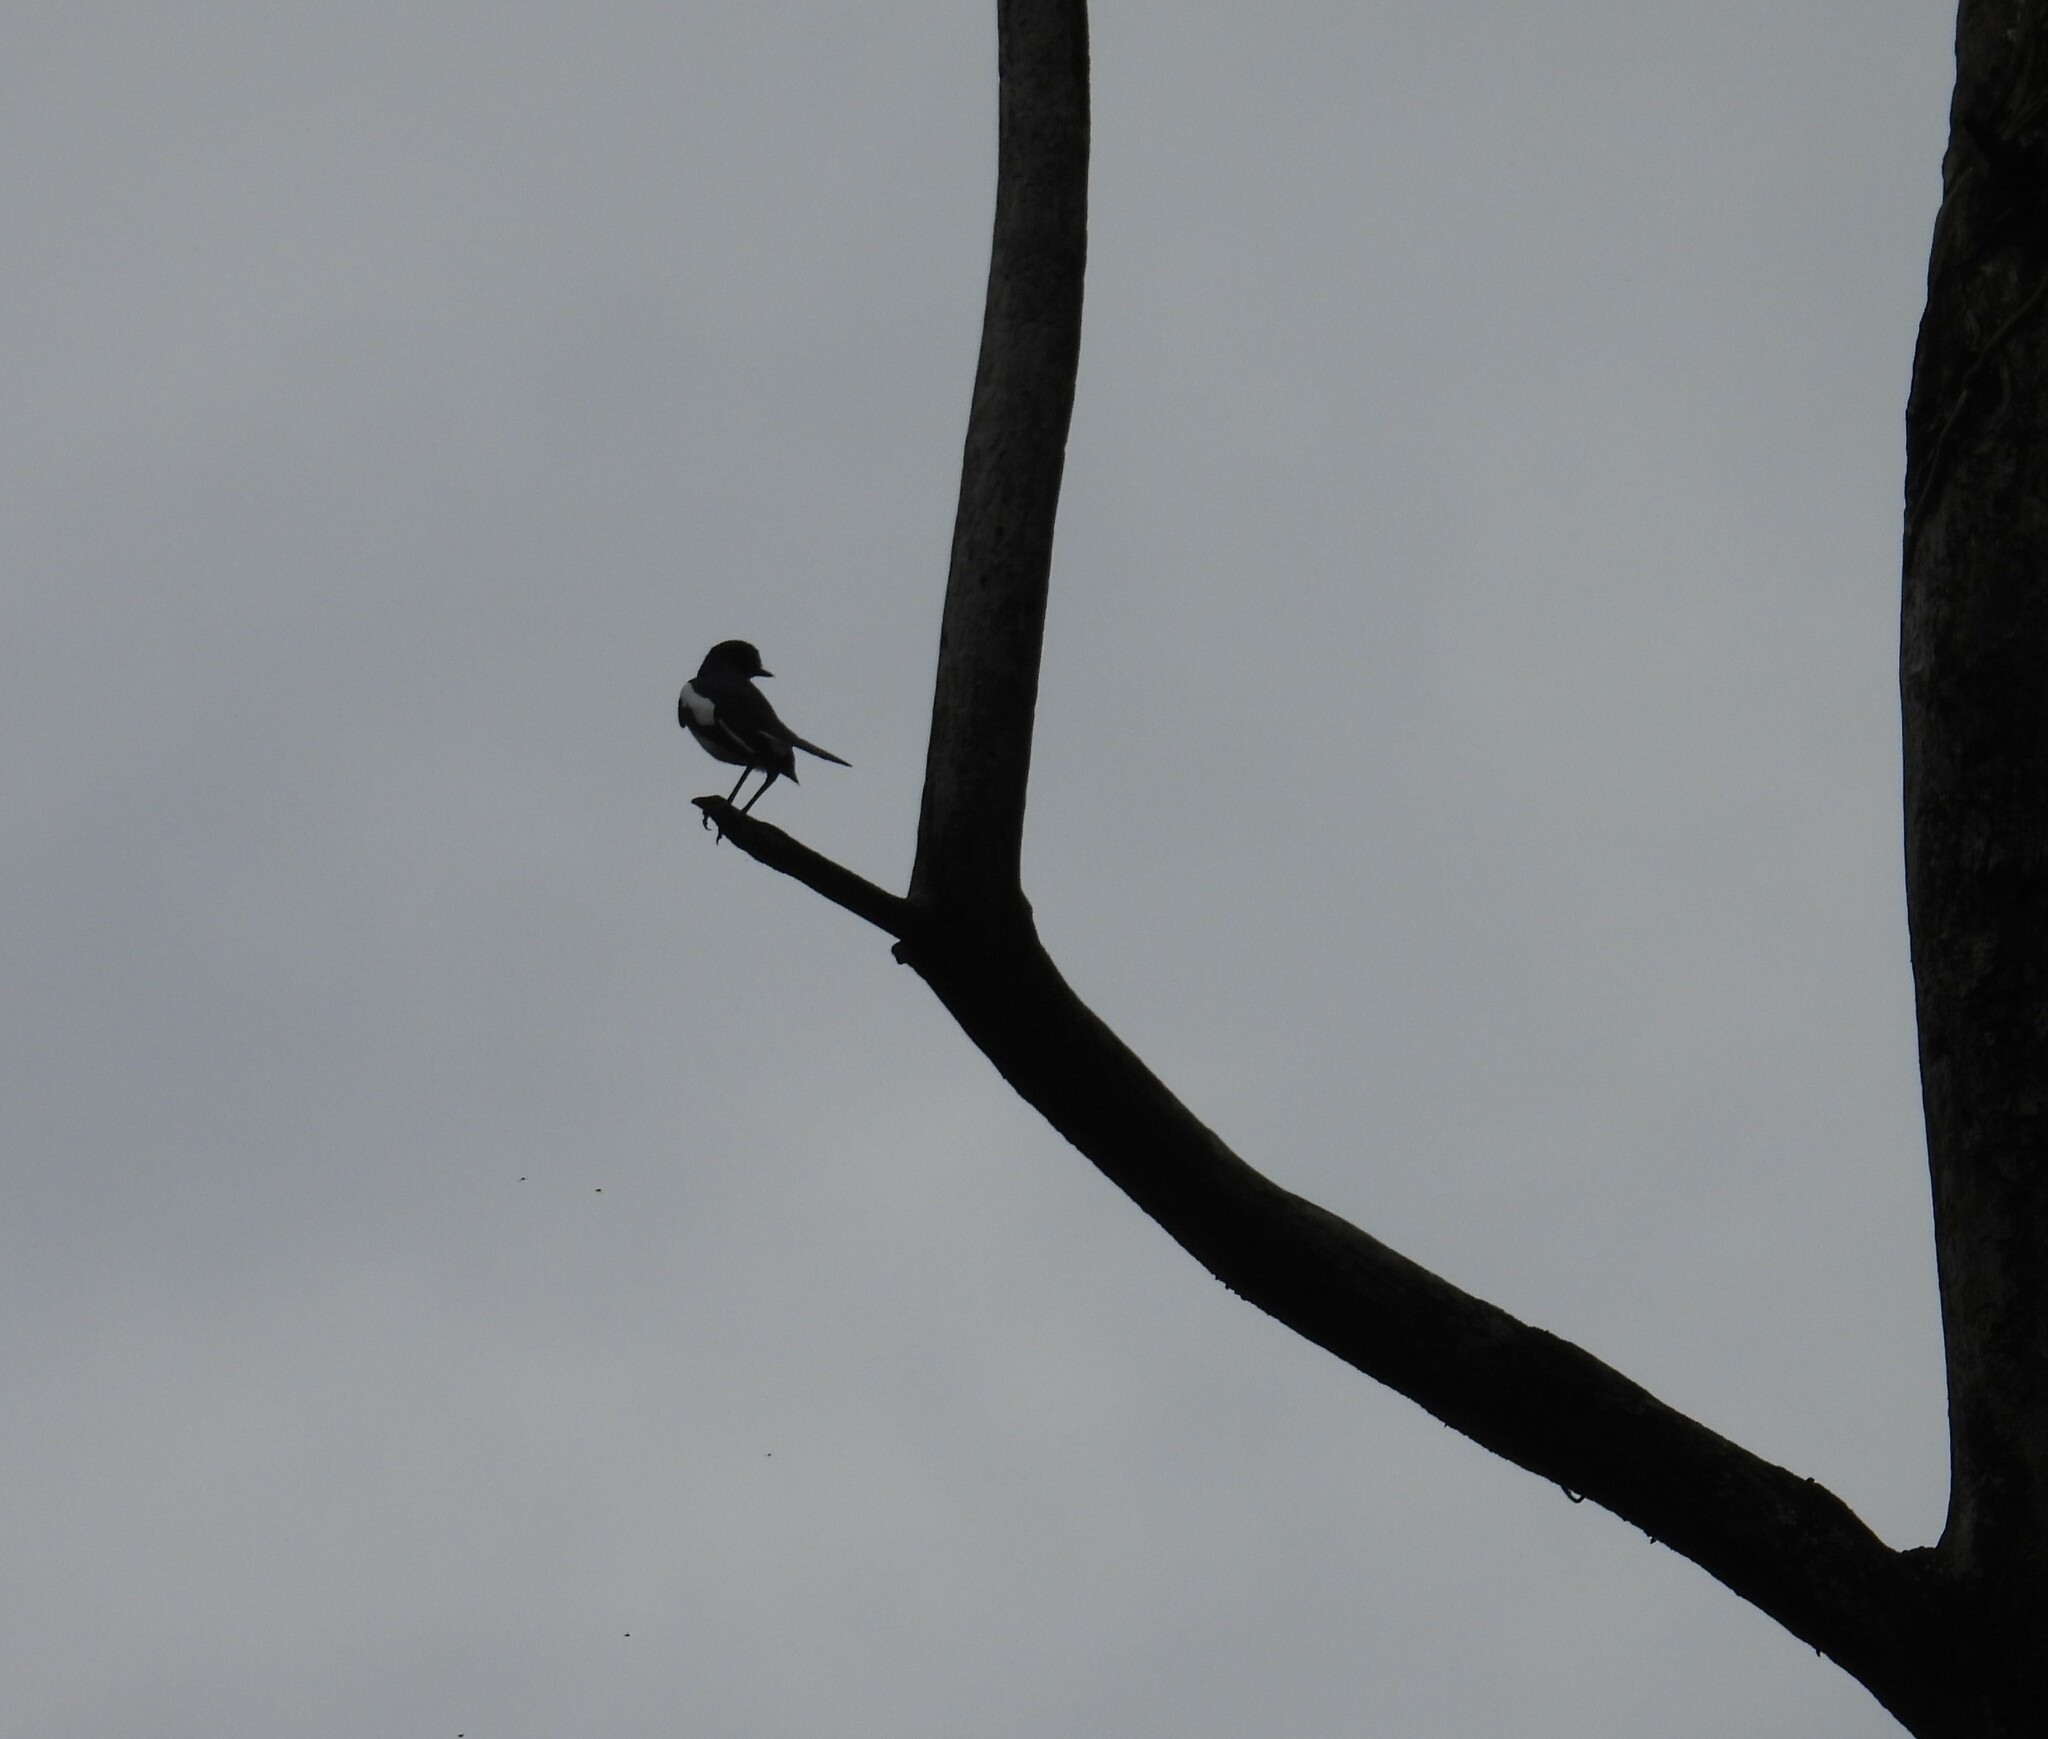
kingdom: Animalia
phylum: Chordata
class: Aves
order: Passeriformes
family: Muscicapidae
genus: Copsychus
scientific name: Copsychus saularis
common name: Oriental magpie-robin
